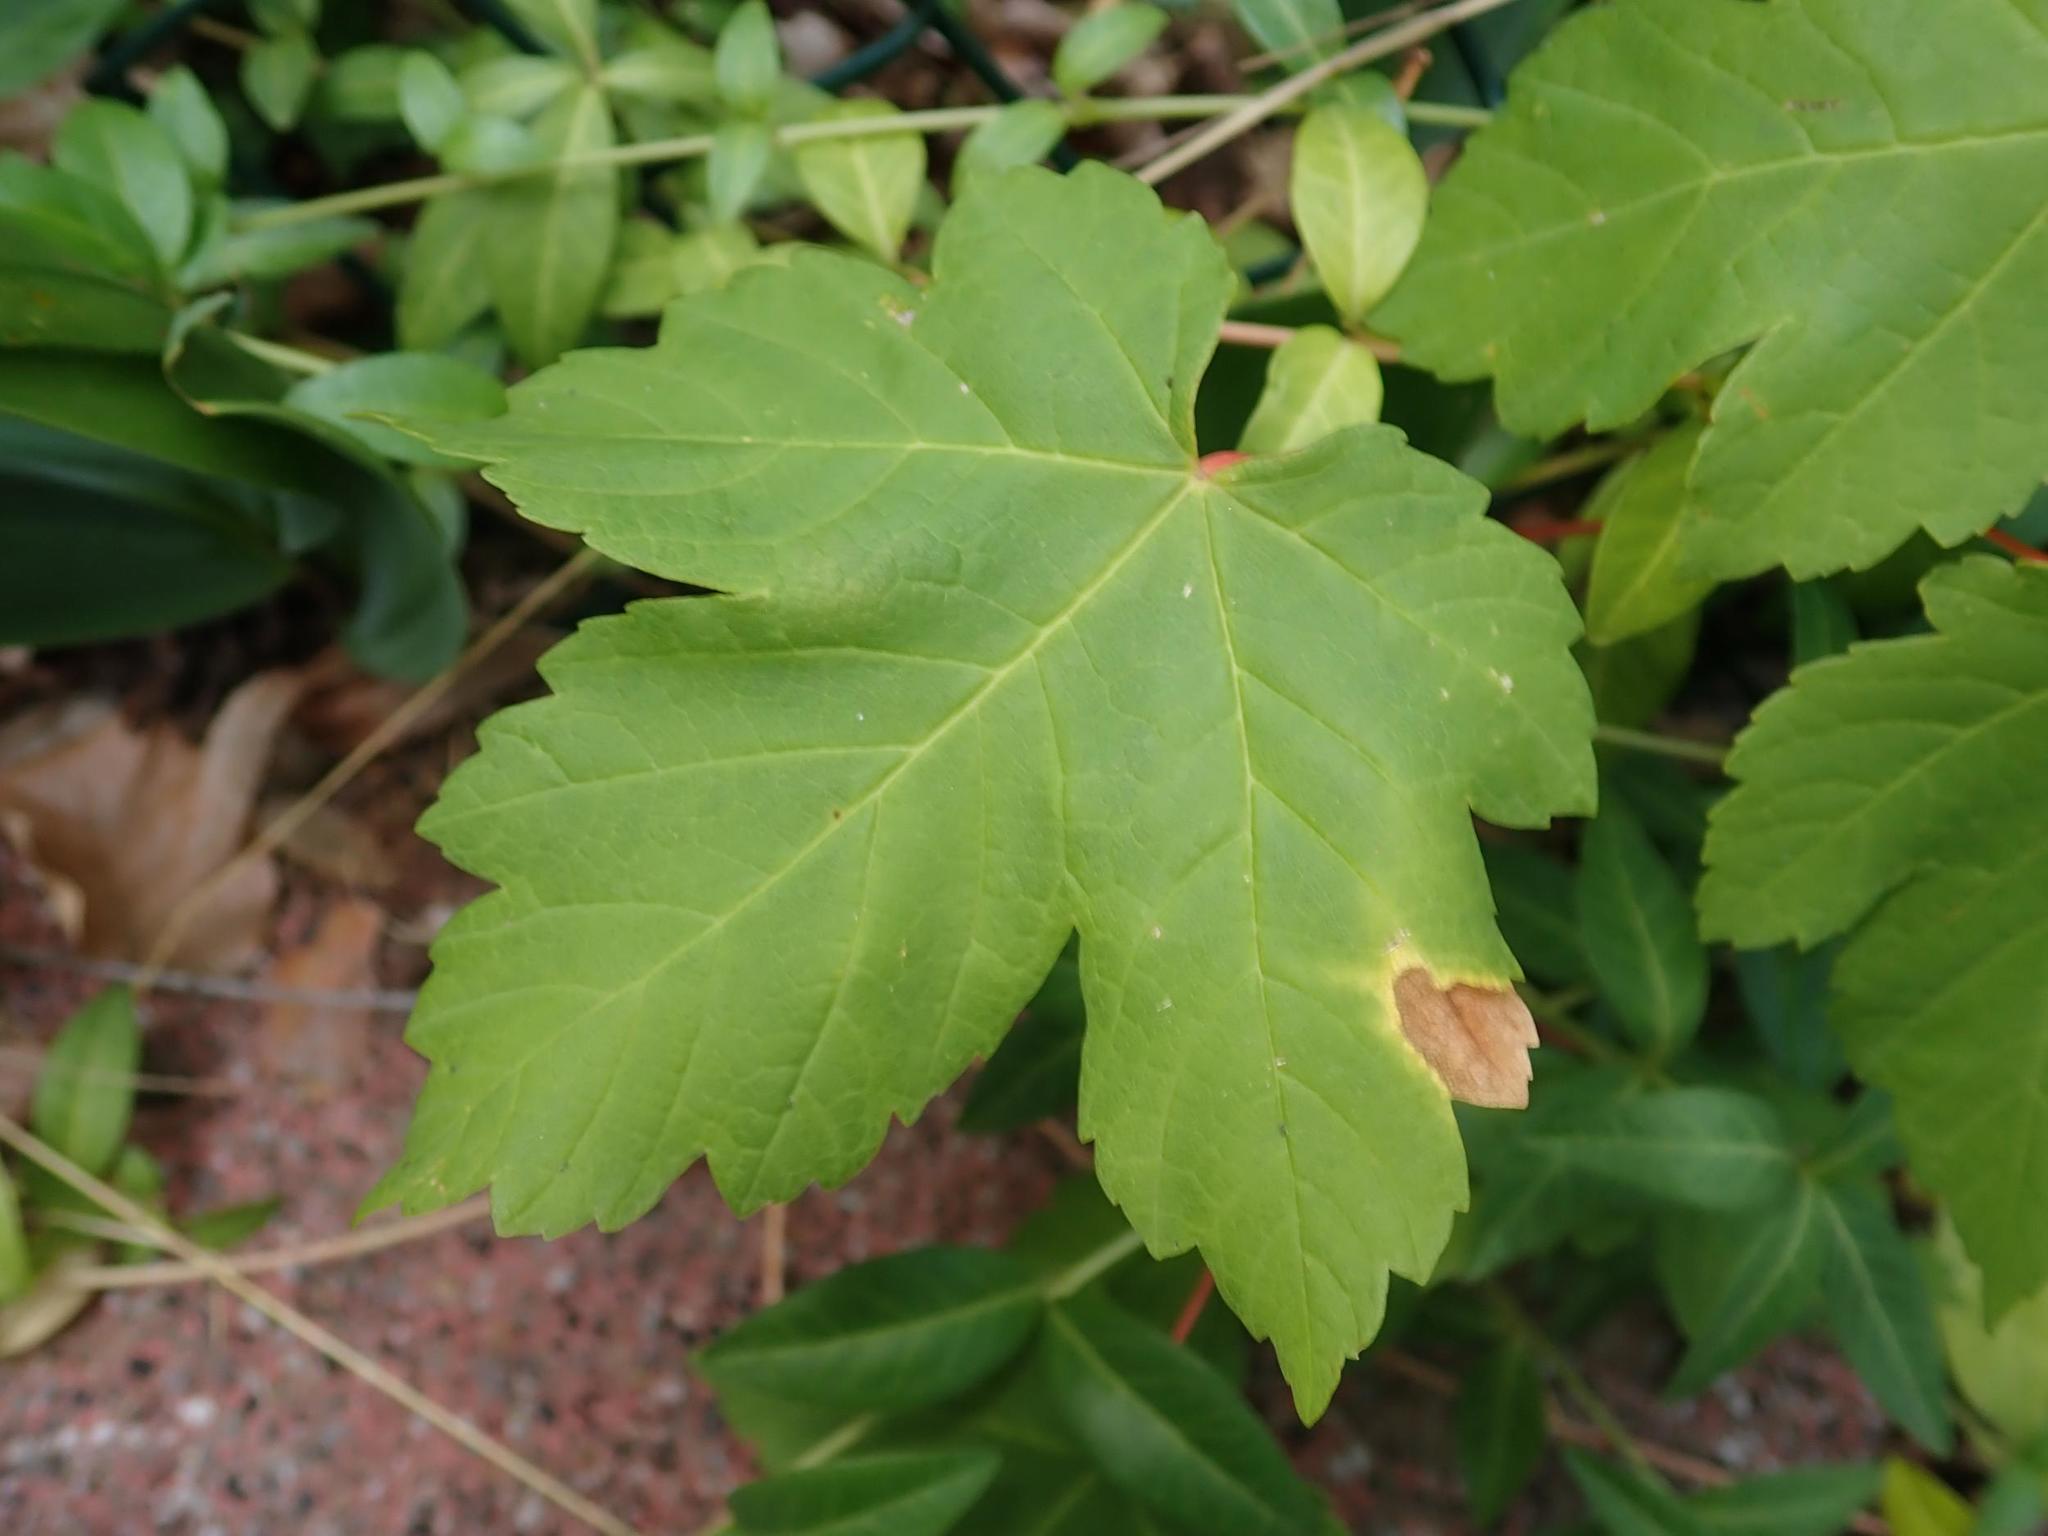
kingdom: Plantae
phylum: Tracheophyta
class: Magnoliopsida
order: Sapindales
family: Sapindaceae
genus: Acer
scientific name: Acer pseudoplatanus
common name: Sycamore
